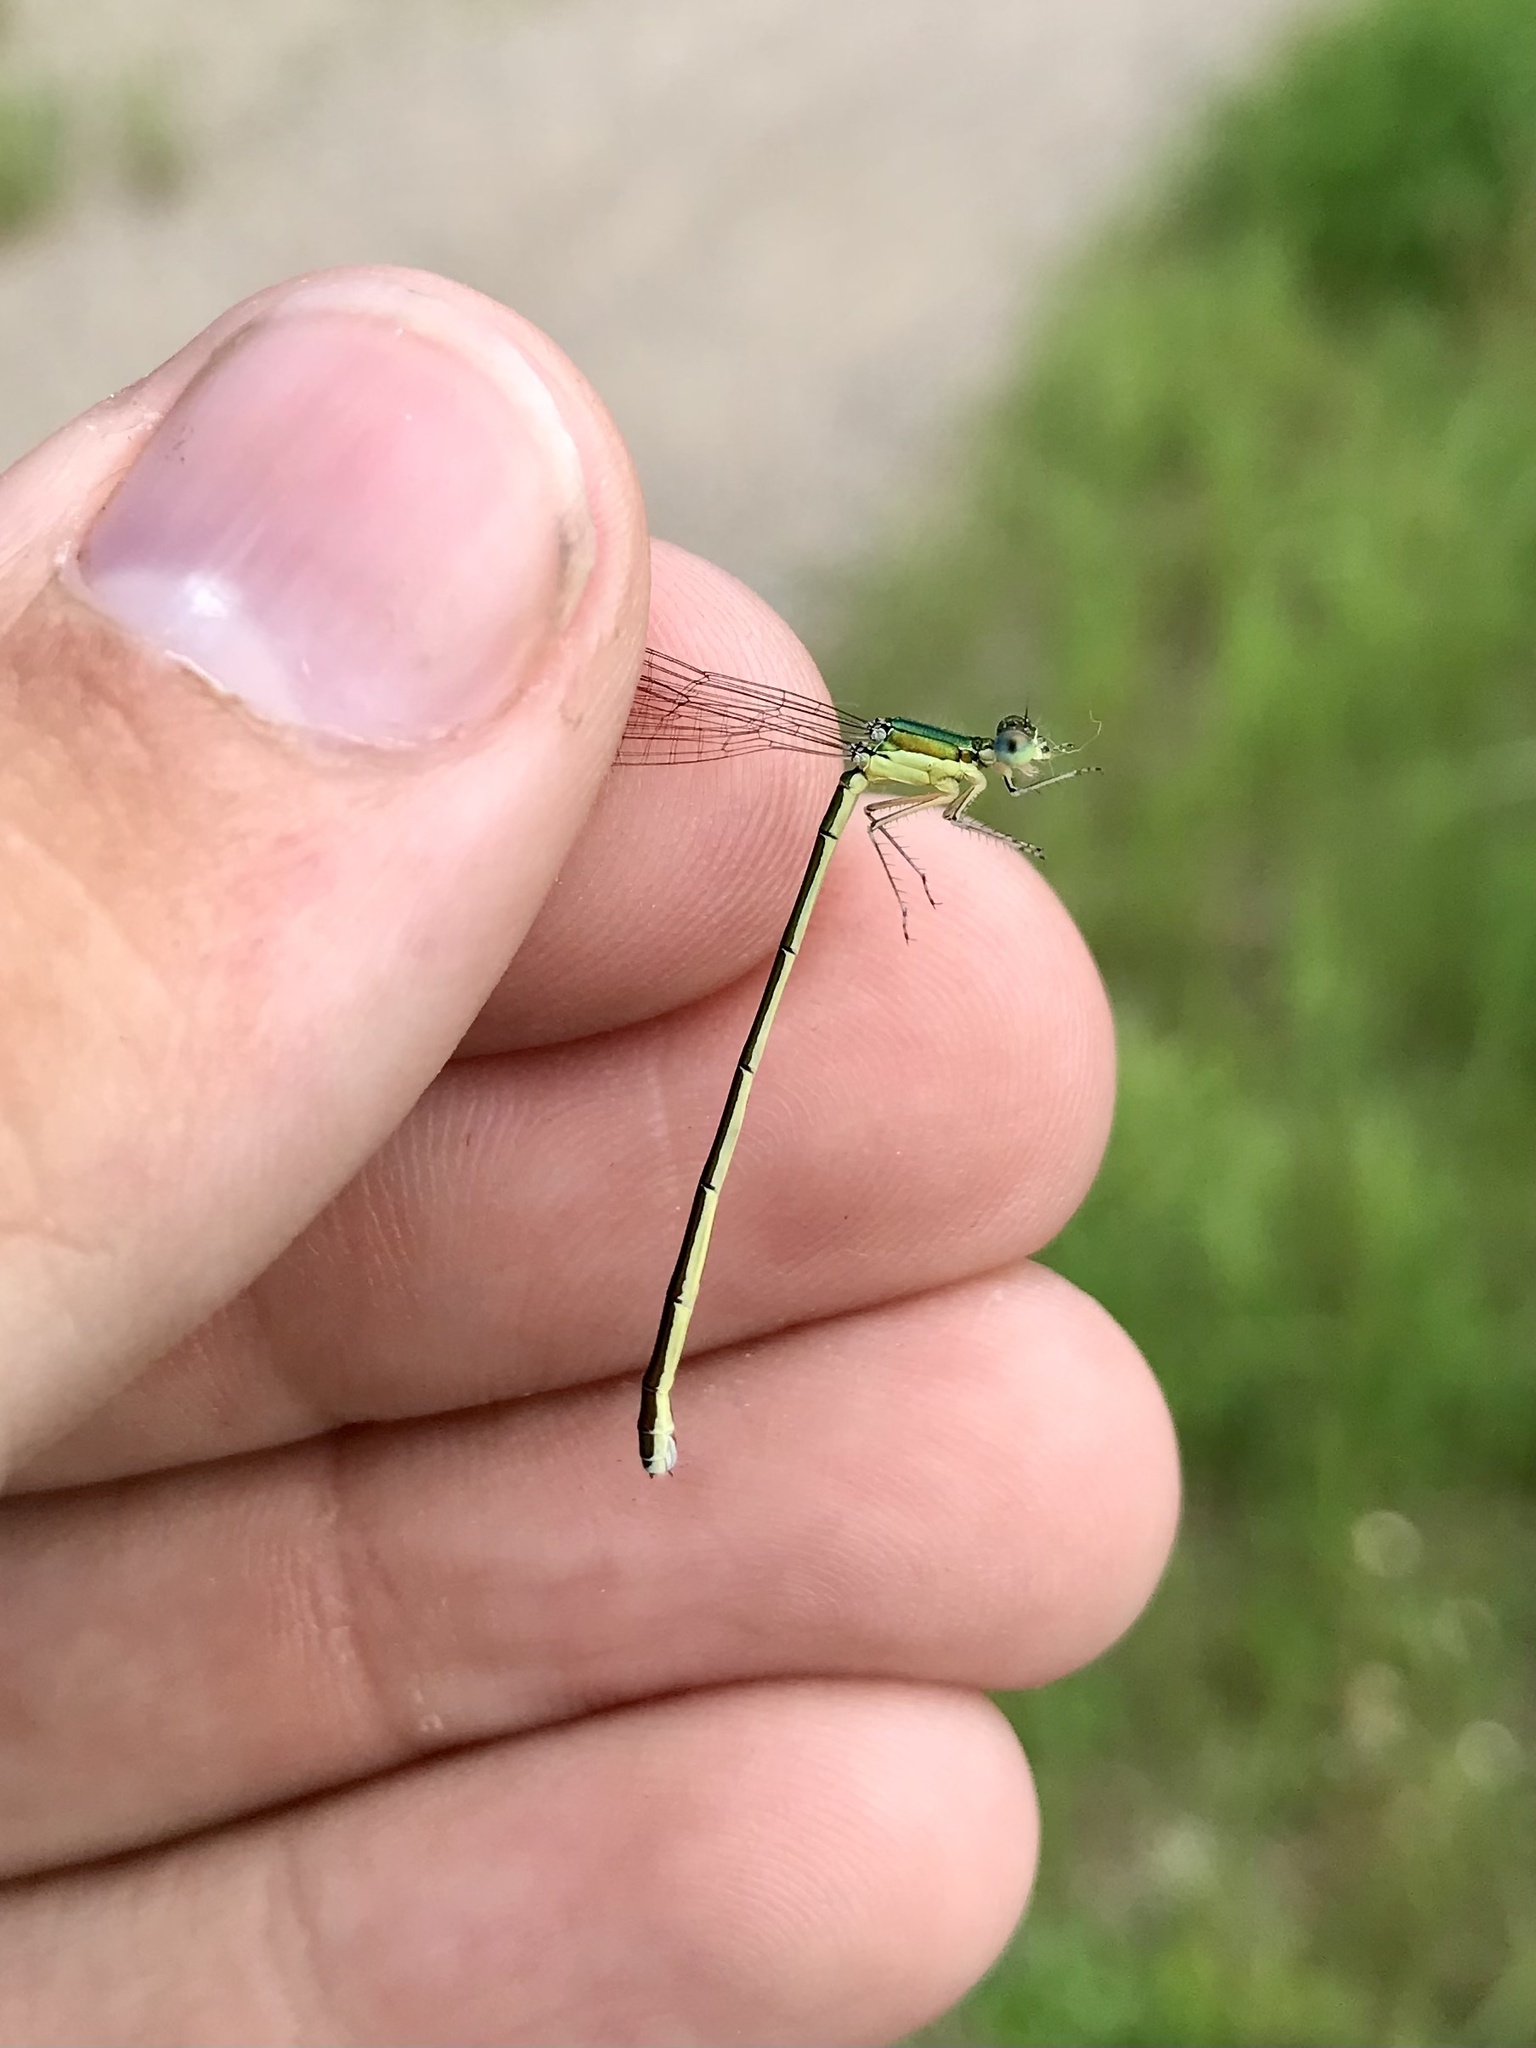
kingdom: Animalia
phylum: Arthropoda
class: Insecta
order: Odonata
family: Coenagrionidae
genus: Nehalennia
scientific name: Nehalennia irene
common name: Sedge sprite
